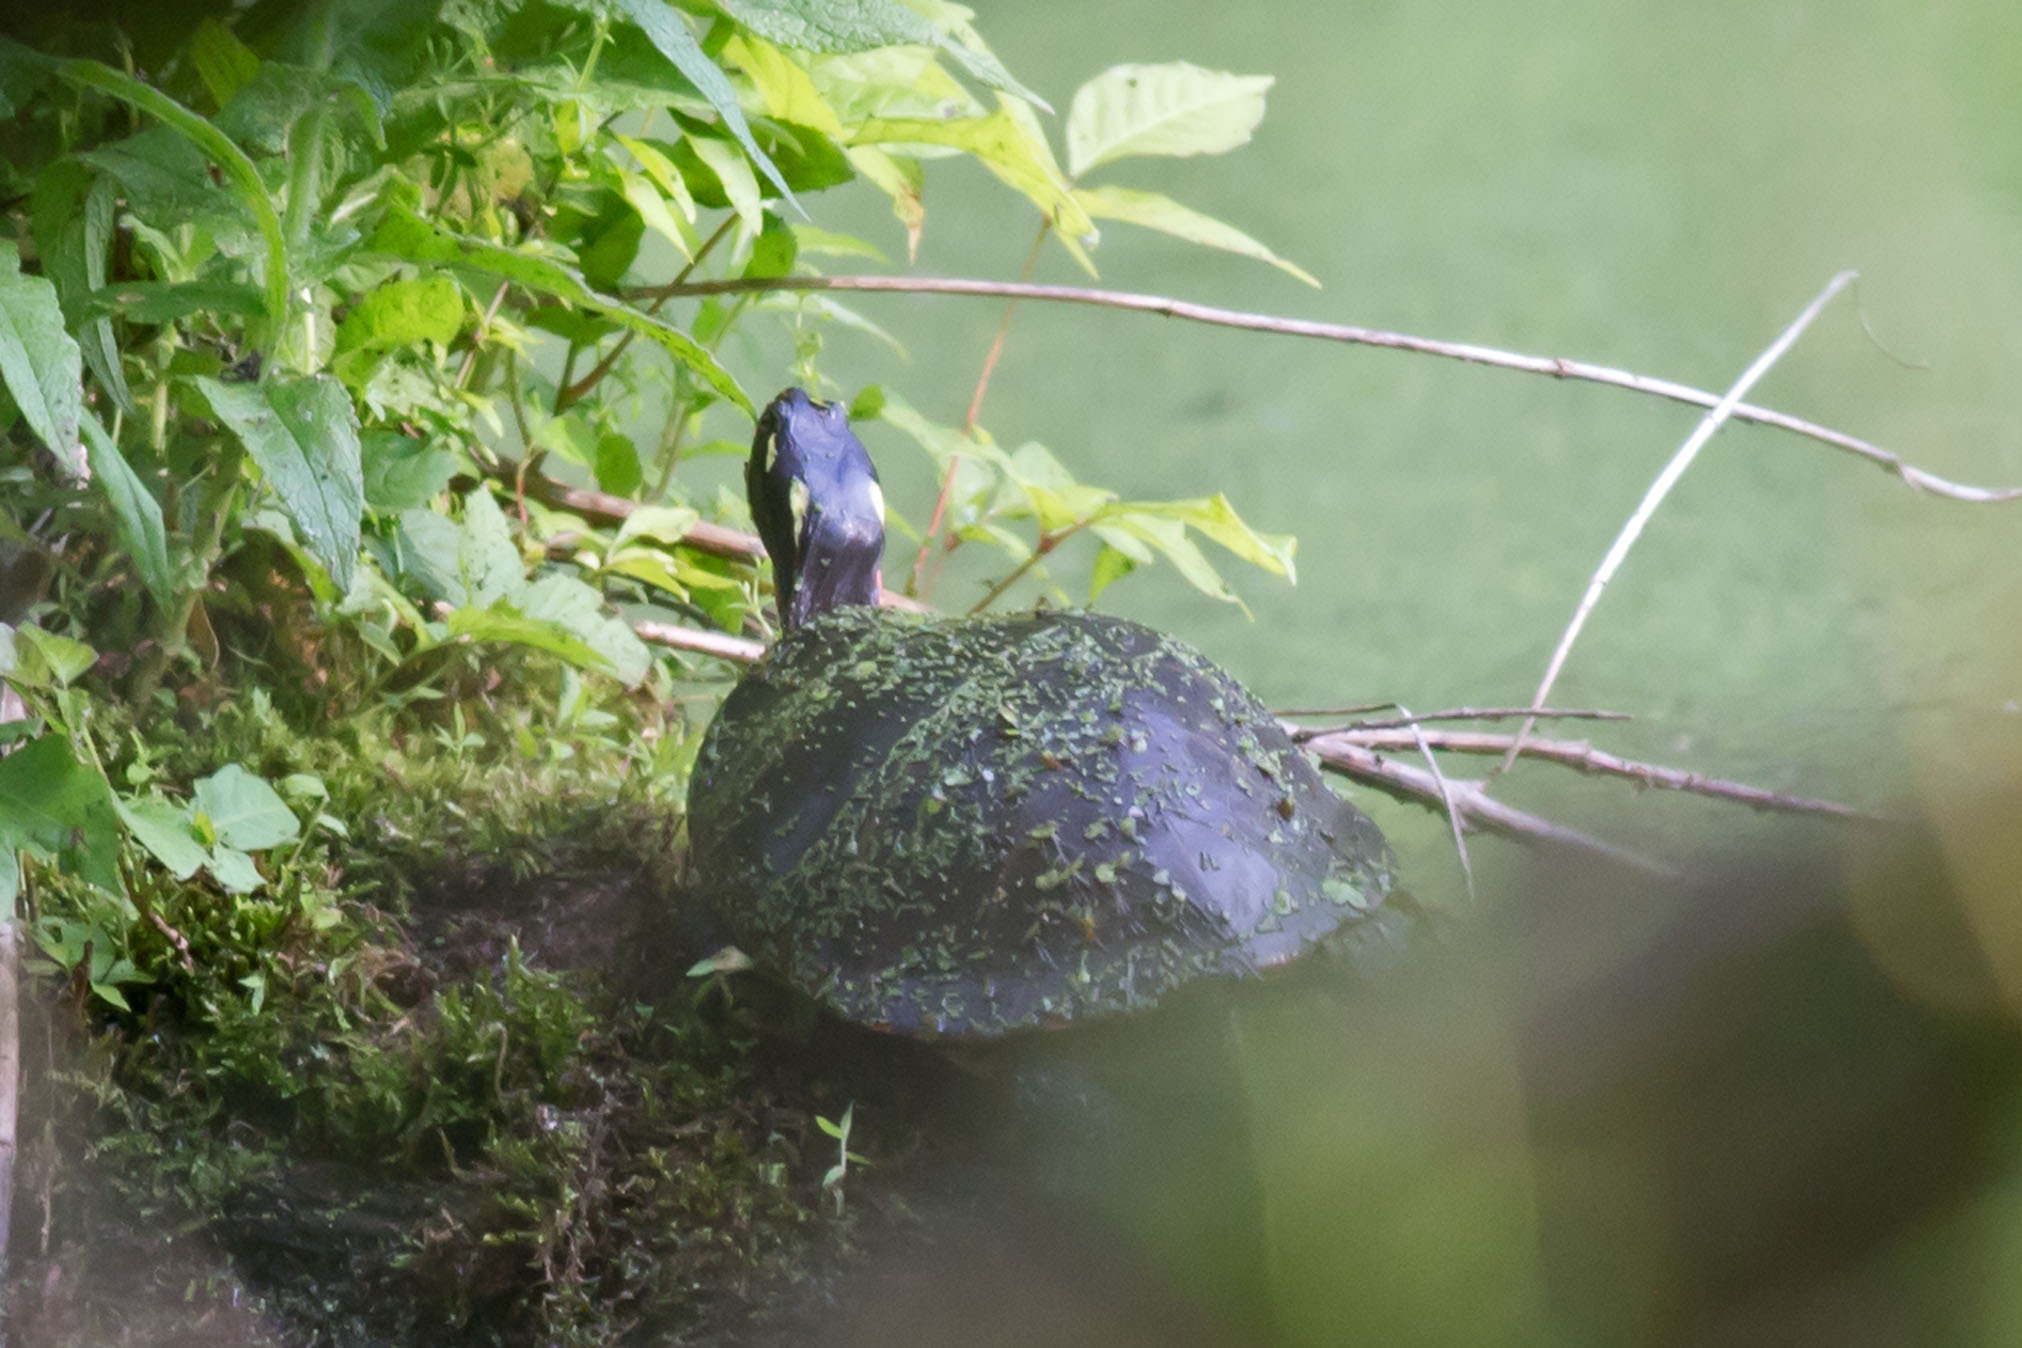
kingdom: Animalia
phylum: Chordata
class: Testudines
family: Emydidae
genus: Chrysemys
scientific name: Chrysemys picta
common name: Painted turtle
